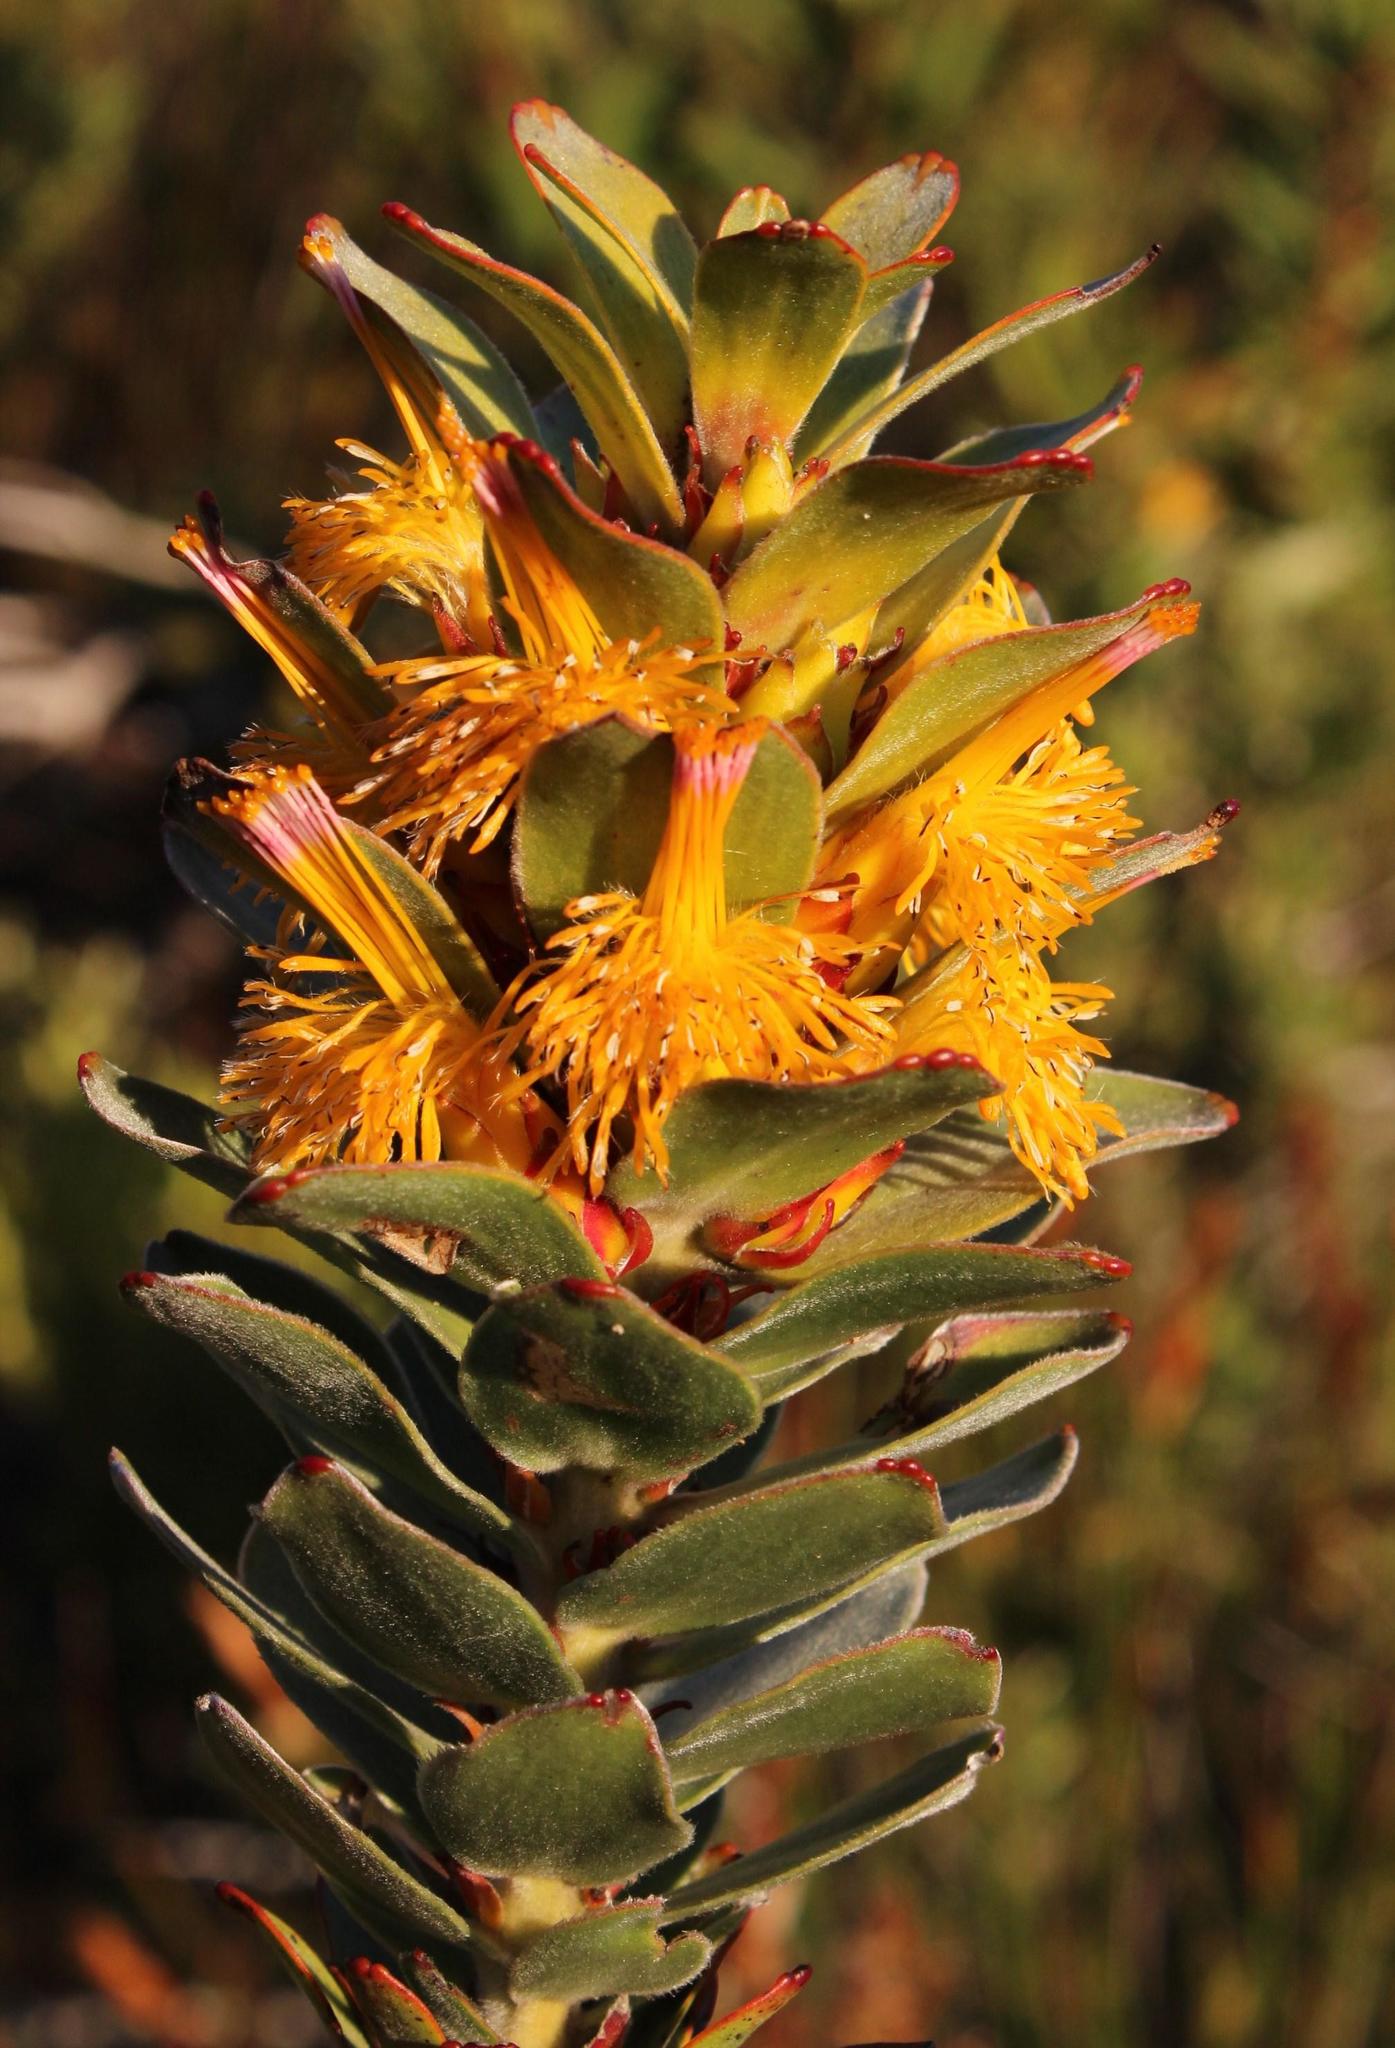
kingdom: Plantae
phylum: Tracheophyta
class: Magnoliopsida
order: Proteales
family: Proteaceae
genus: Mimetes
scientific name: Mimetes saxatilis
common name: Limestone pagoda
